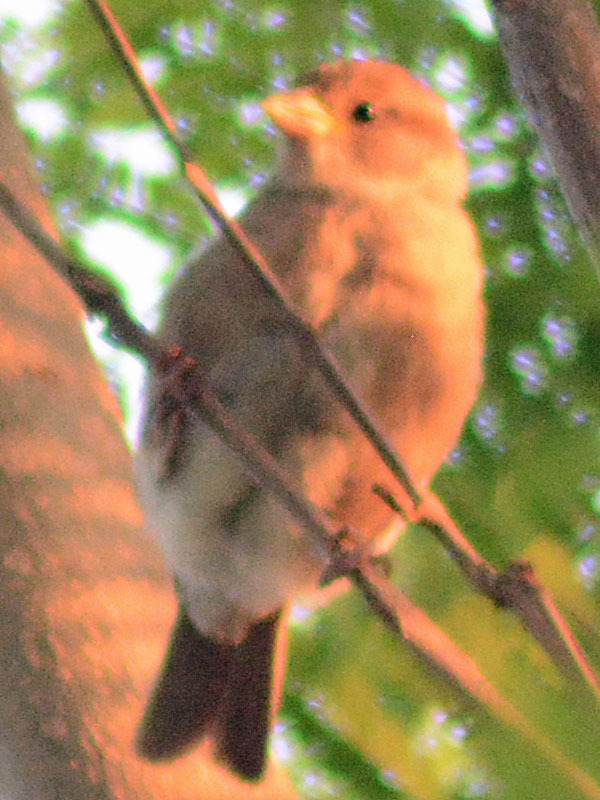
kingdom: Animalia
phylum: Chordata
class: Aves
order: Passeriformes
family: Passeridae
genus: Passer
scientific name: Passer domesticus
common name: House sparrow
